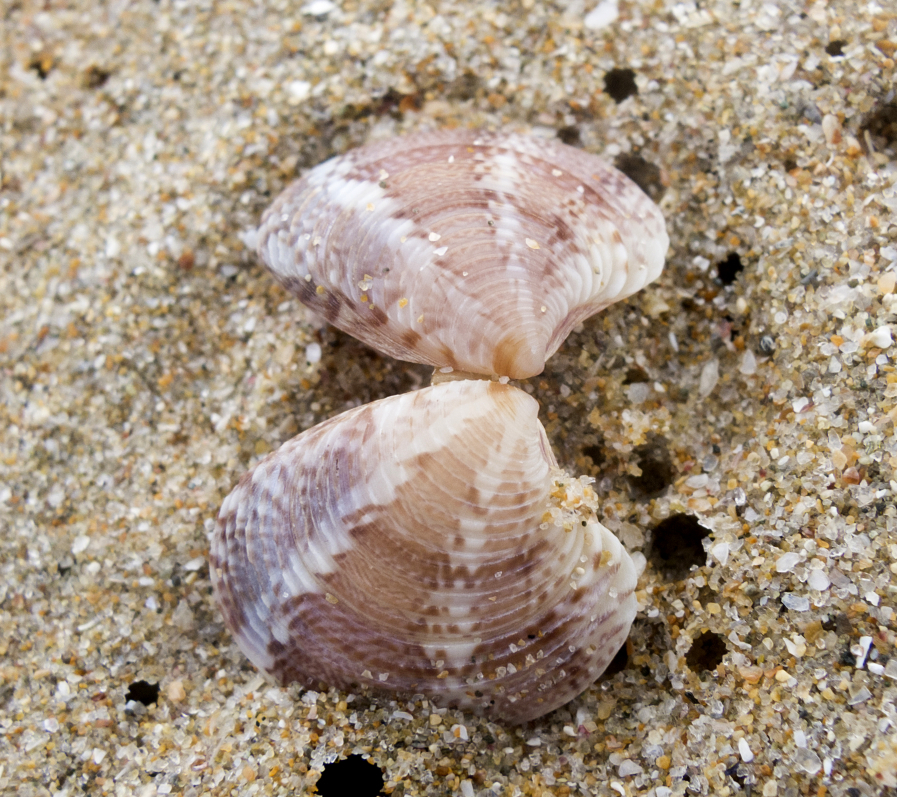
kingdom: Animalia
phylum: Mollusca
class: Bivalvia
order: Venerida
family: Veneridae
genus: Chamelea
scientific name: Chamelea gallina
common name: Chicken venus
